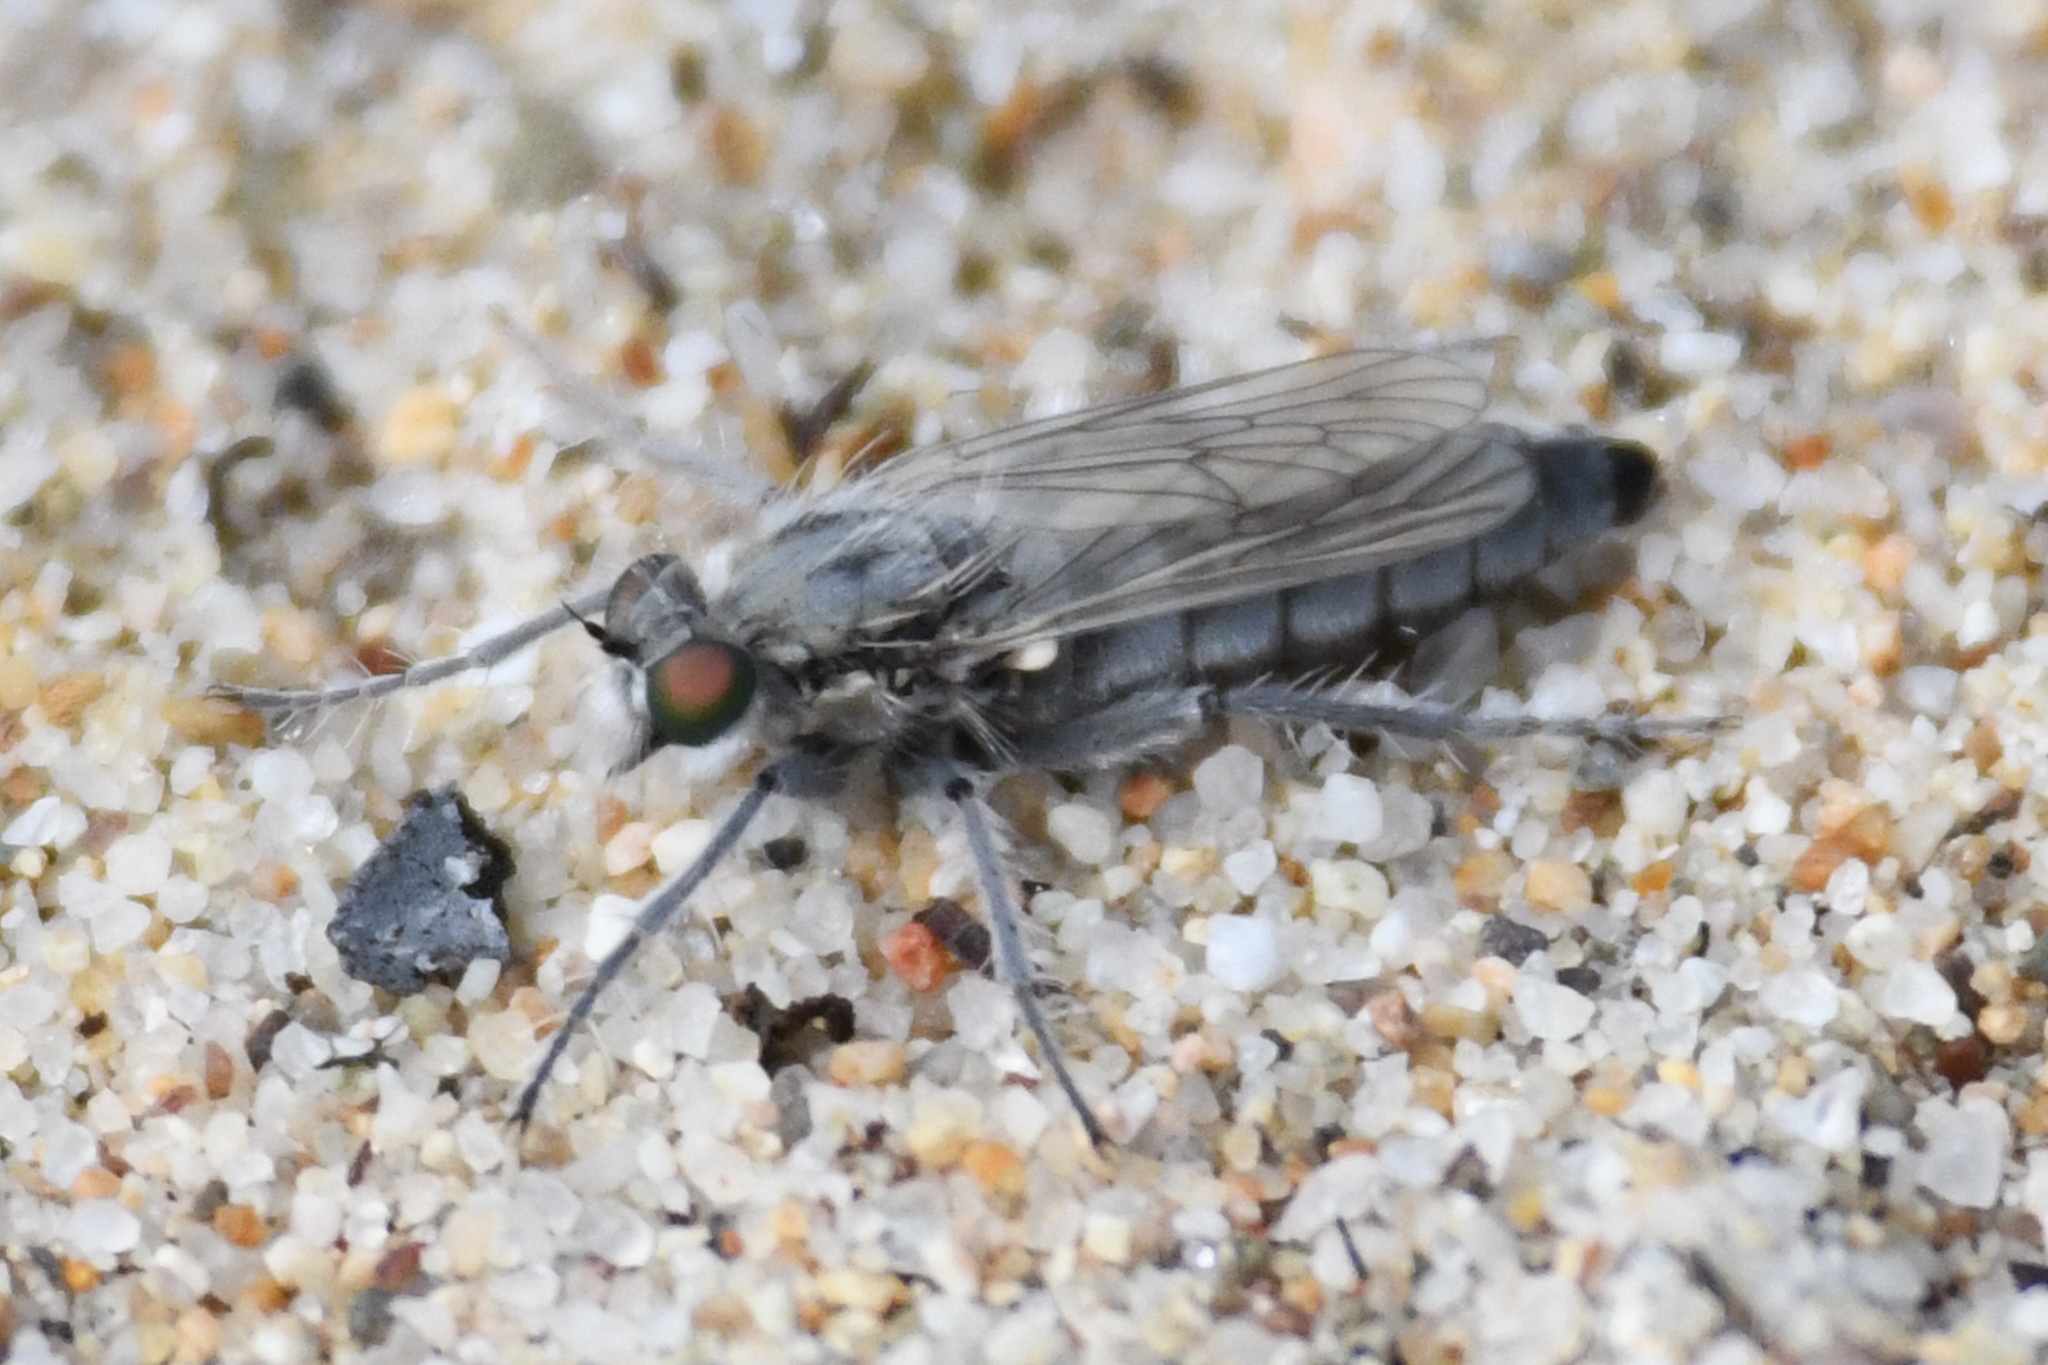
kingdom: Animalia
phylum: Arthropoda
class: Insecta
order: Diptera
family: Asilidae
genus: Lasiopogon
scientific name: Lasiopogon littoris
